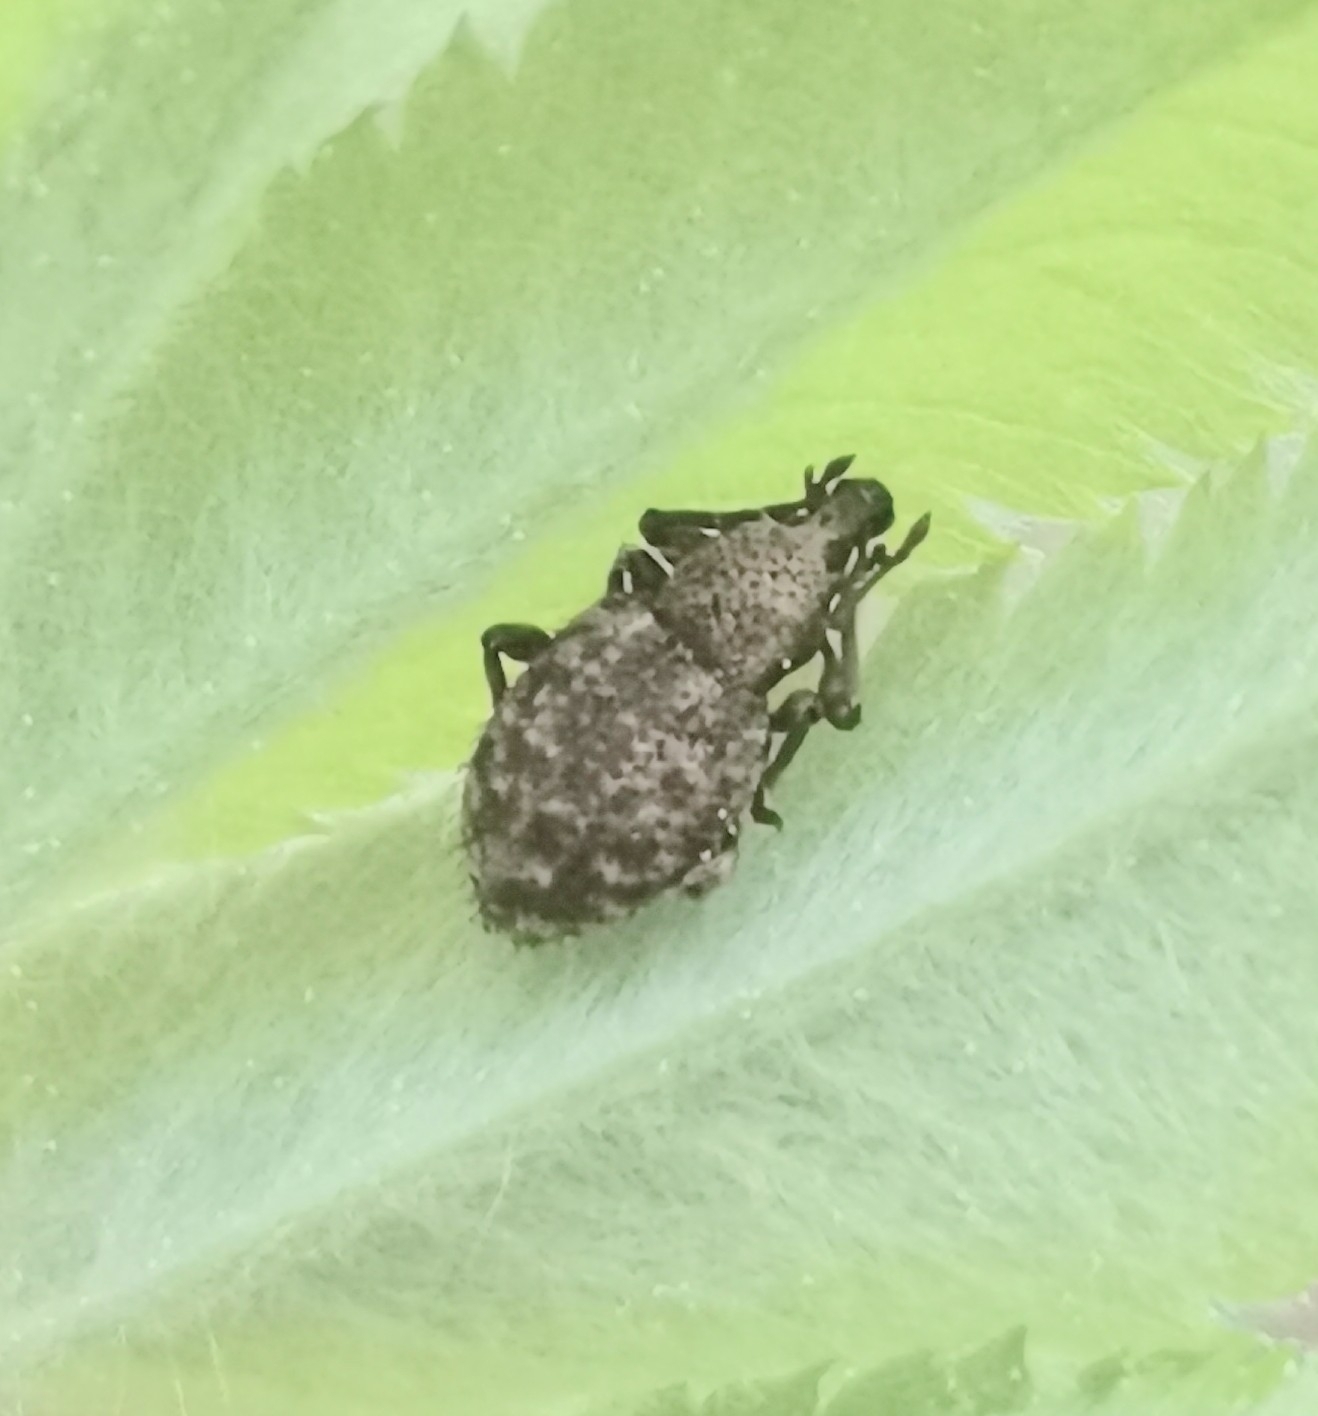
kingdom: Animalia
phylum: Arthropoda
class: Insecta
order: Coleoptera
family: Curculionidae
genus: Otiorhynchus
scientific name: Otiorhynchus carinatopunctatus
